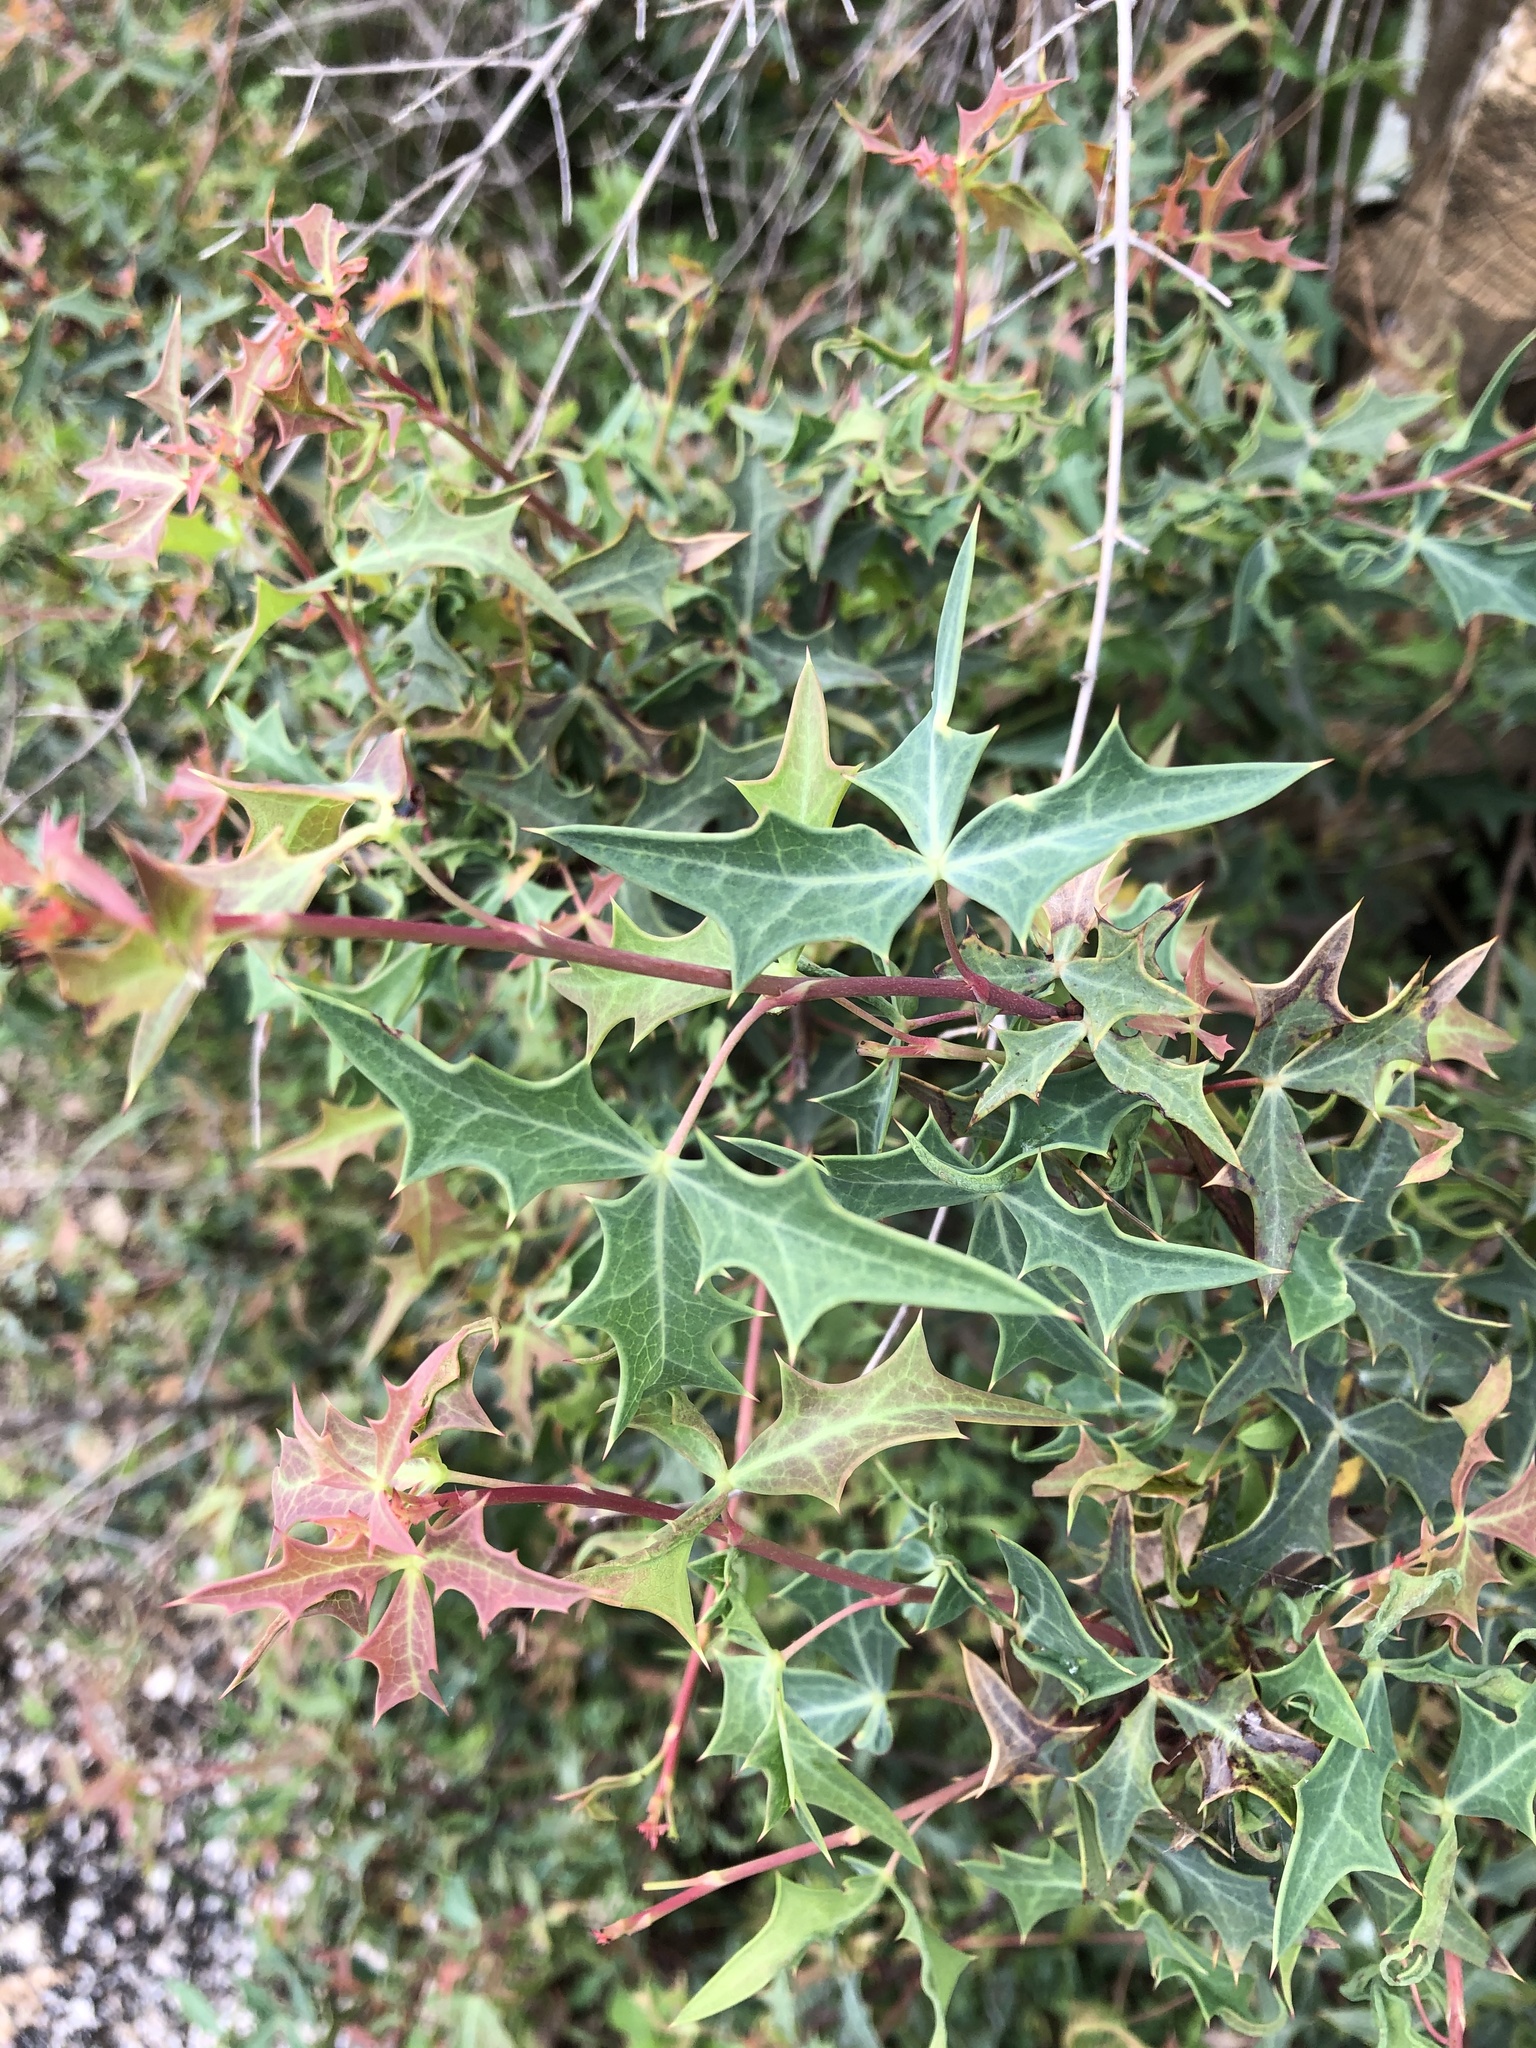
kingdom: Plantae
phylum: Tracheophyta
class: Magnoliopsida
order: Ranunculales
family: Berberidaceae
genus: Alloberberis
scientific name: Alloberberis trifoliolata
